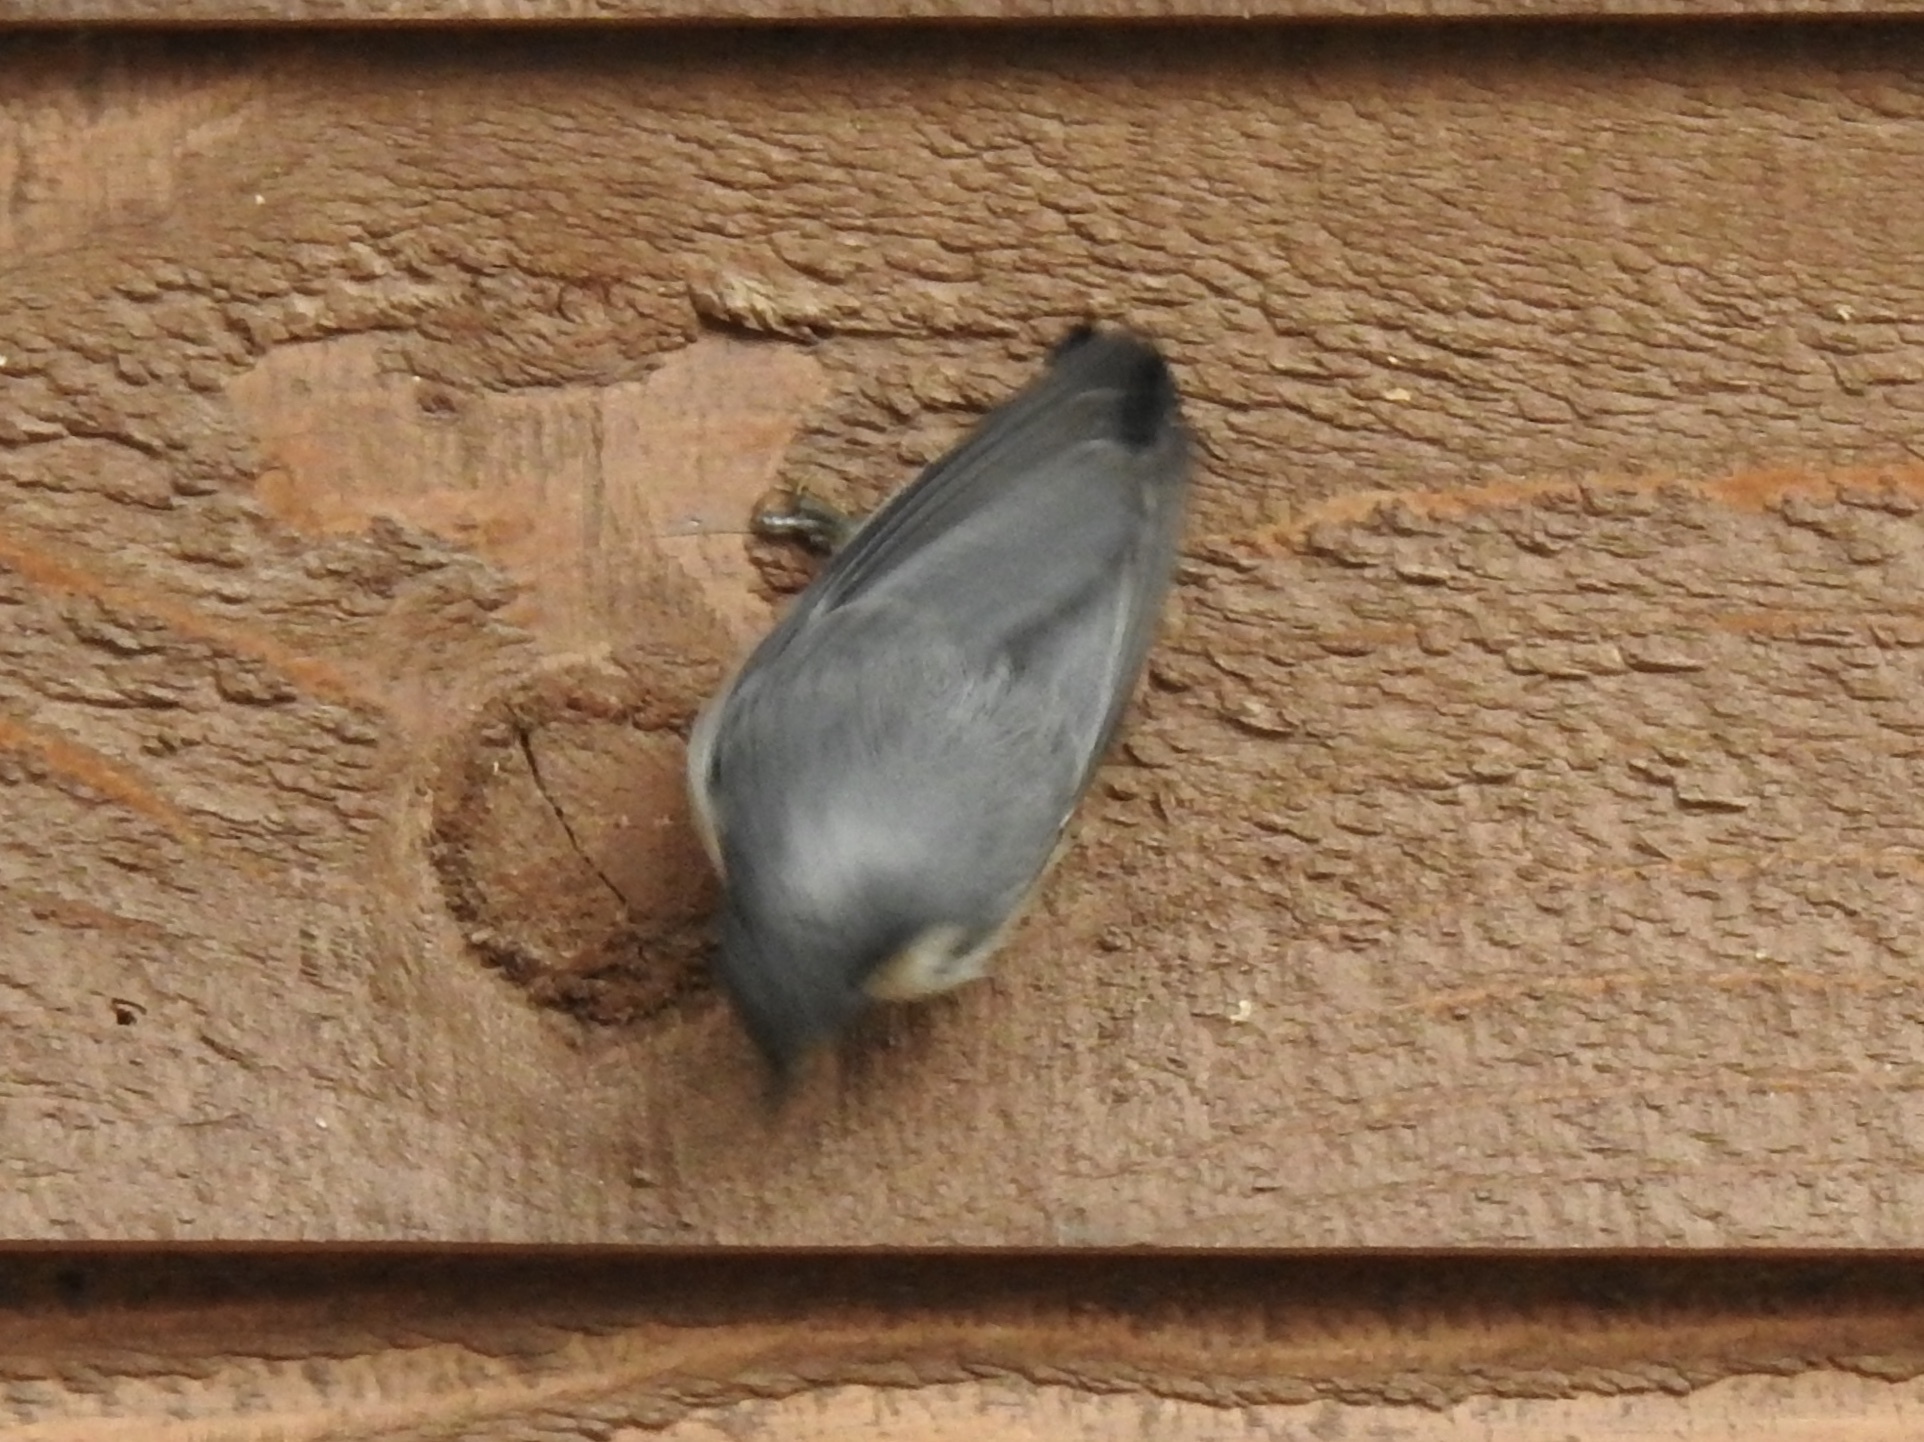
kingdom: Animalia
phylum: Chordata
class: Aves
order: Passeriformes
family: Sittidae
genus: Sitta
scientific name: Sitta pygmaea
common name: Pygmy nuthatch
